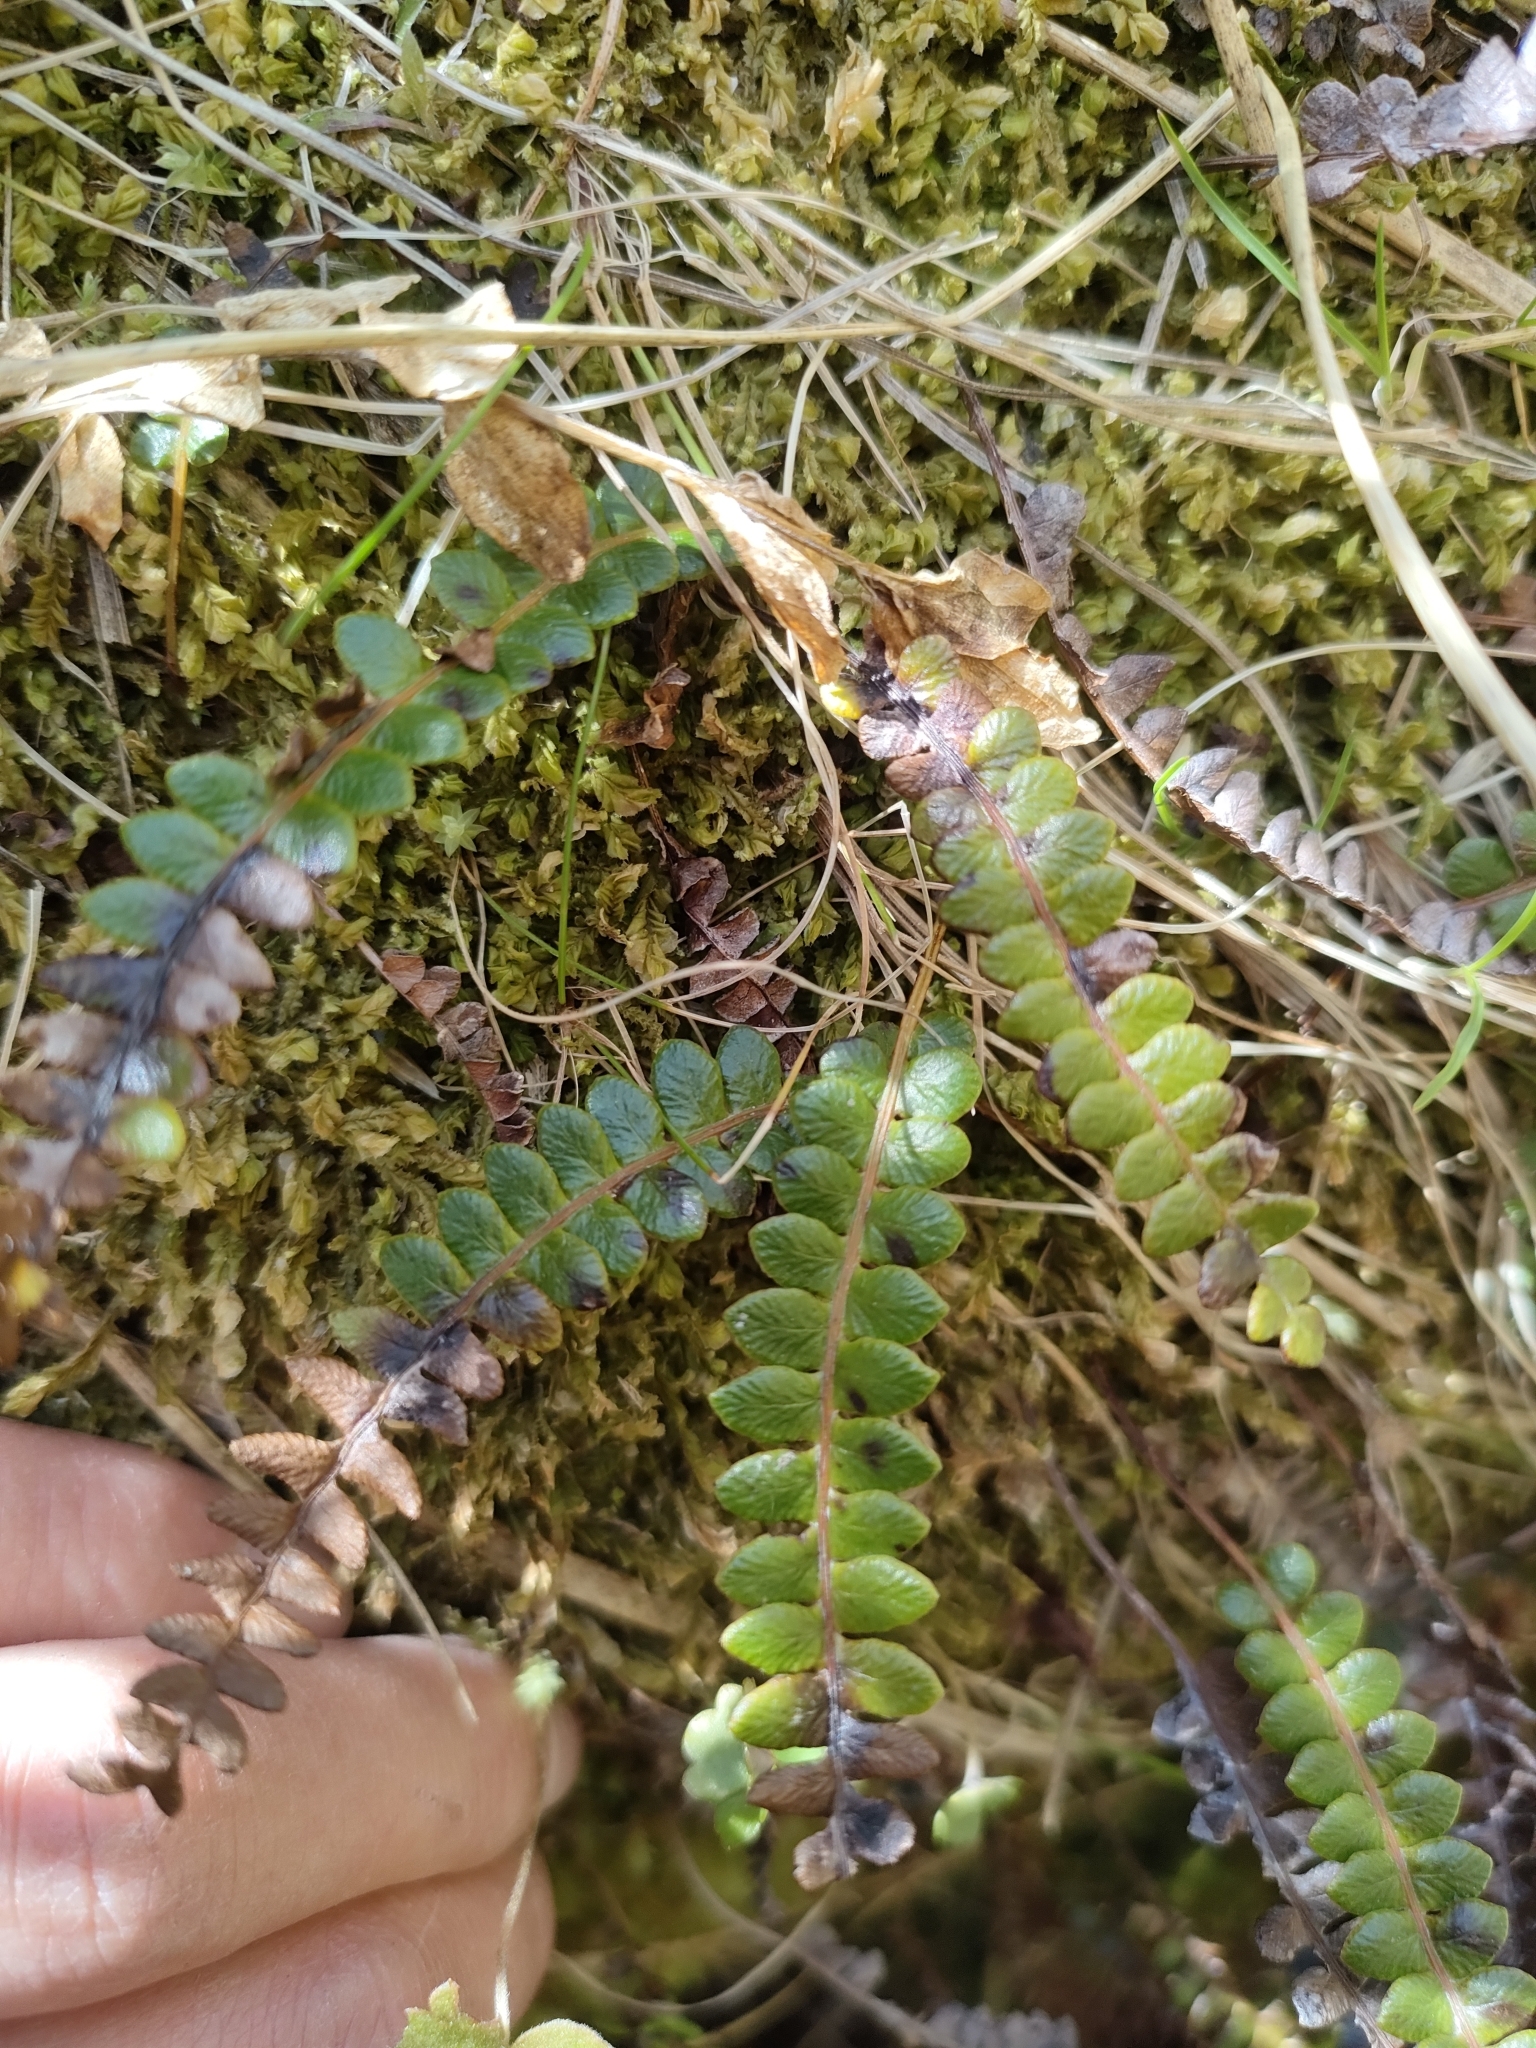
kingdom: Plantae
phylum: Tracheophyta
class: Polypodiopsida
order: Polypodiales
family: Blechnaceae
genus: Austroblechnum
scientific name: Austroblechnum penna-marina
